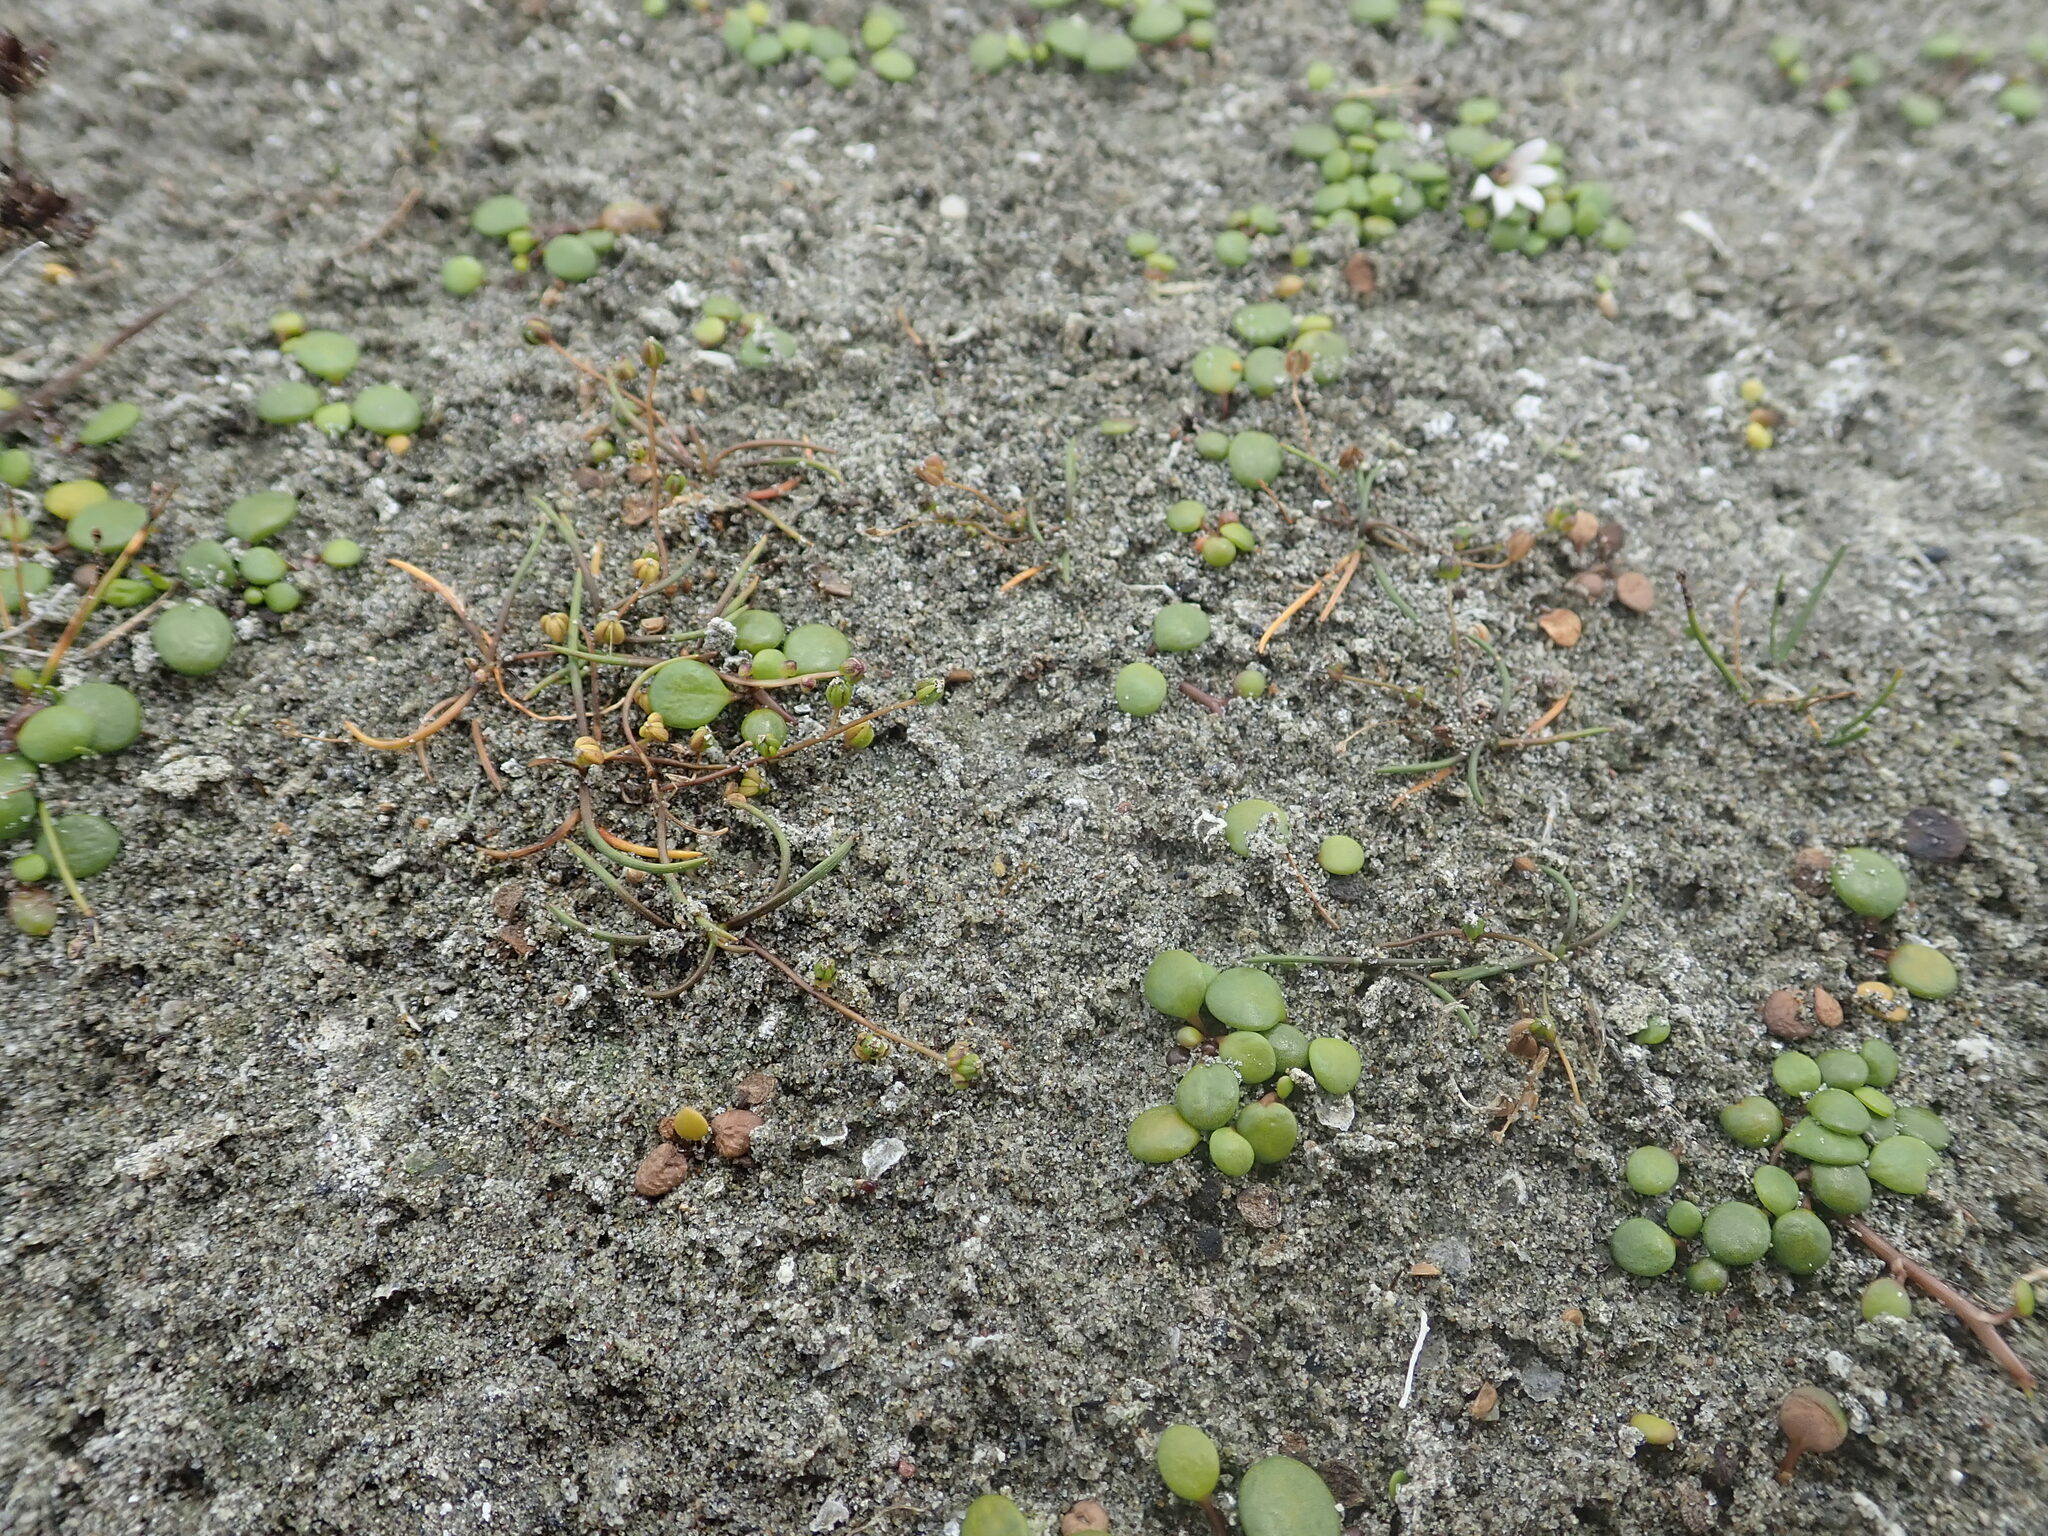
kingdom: Plantae
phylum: Tracheophyta
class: Liliopsida
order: Alismatales
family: Juncaginaceae
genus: Triglochin
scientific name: Triglochin striata
